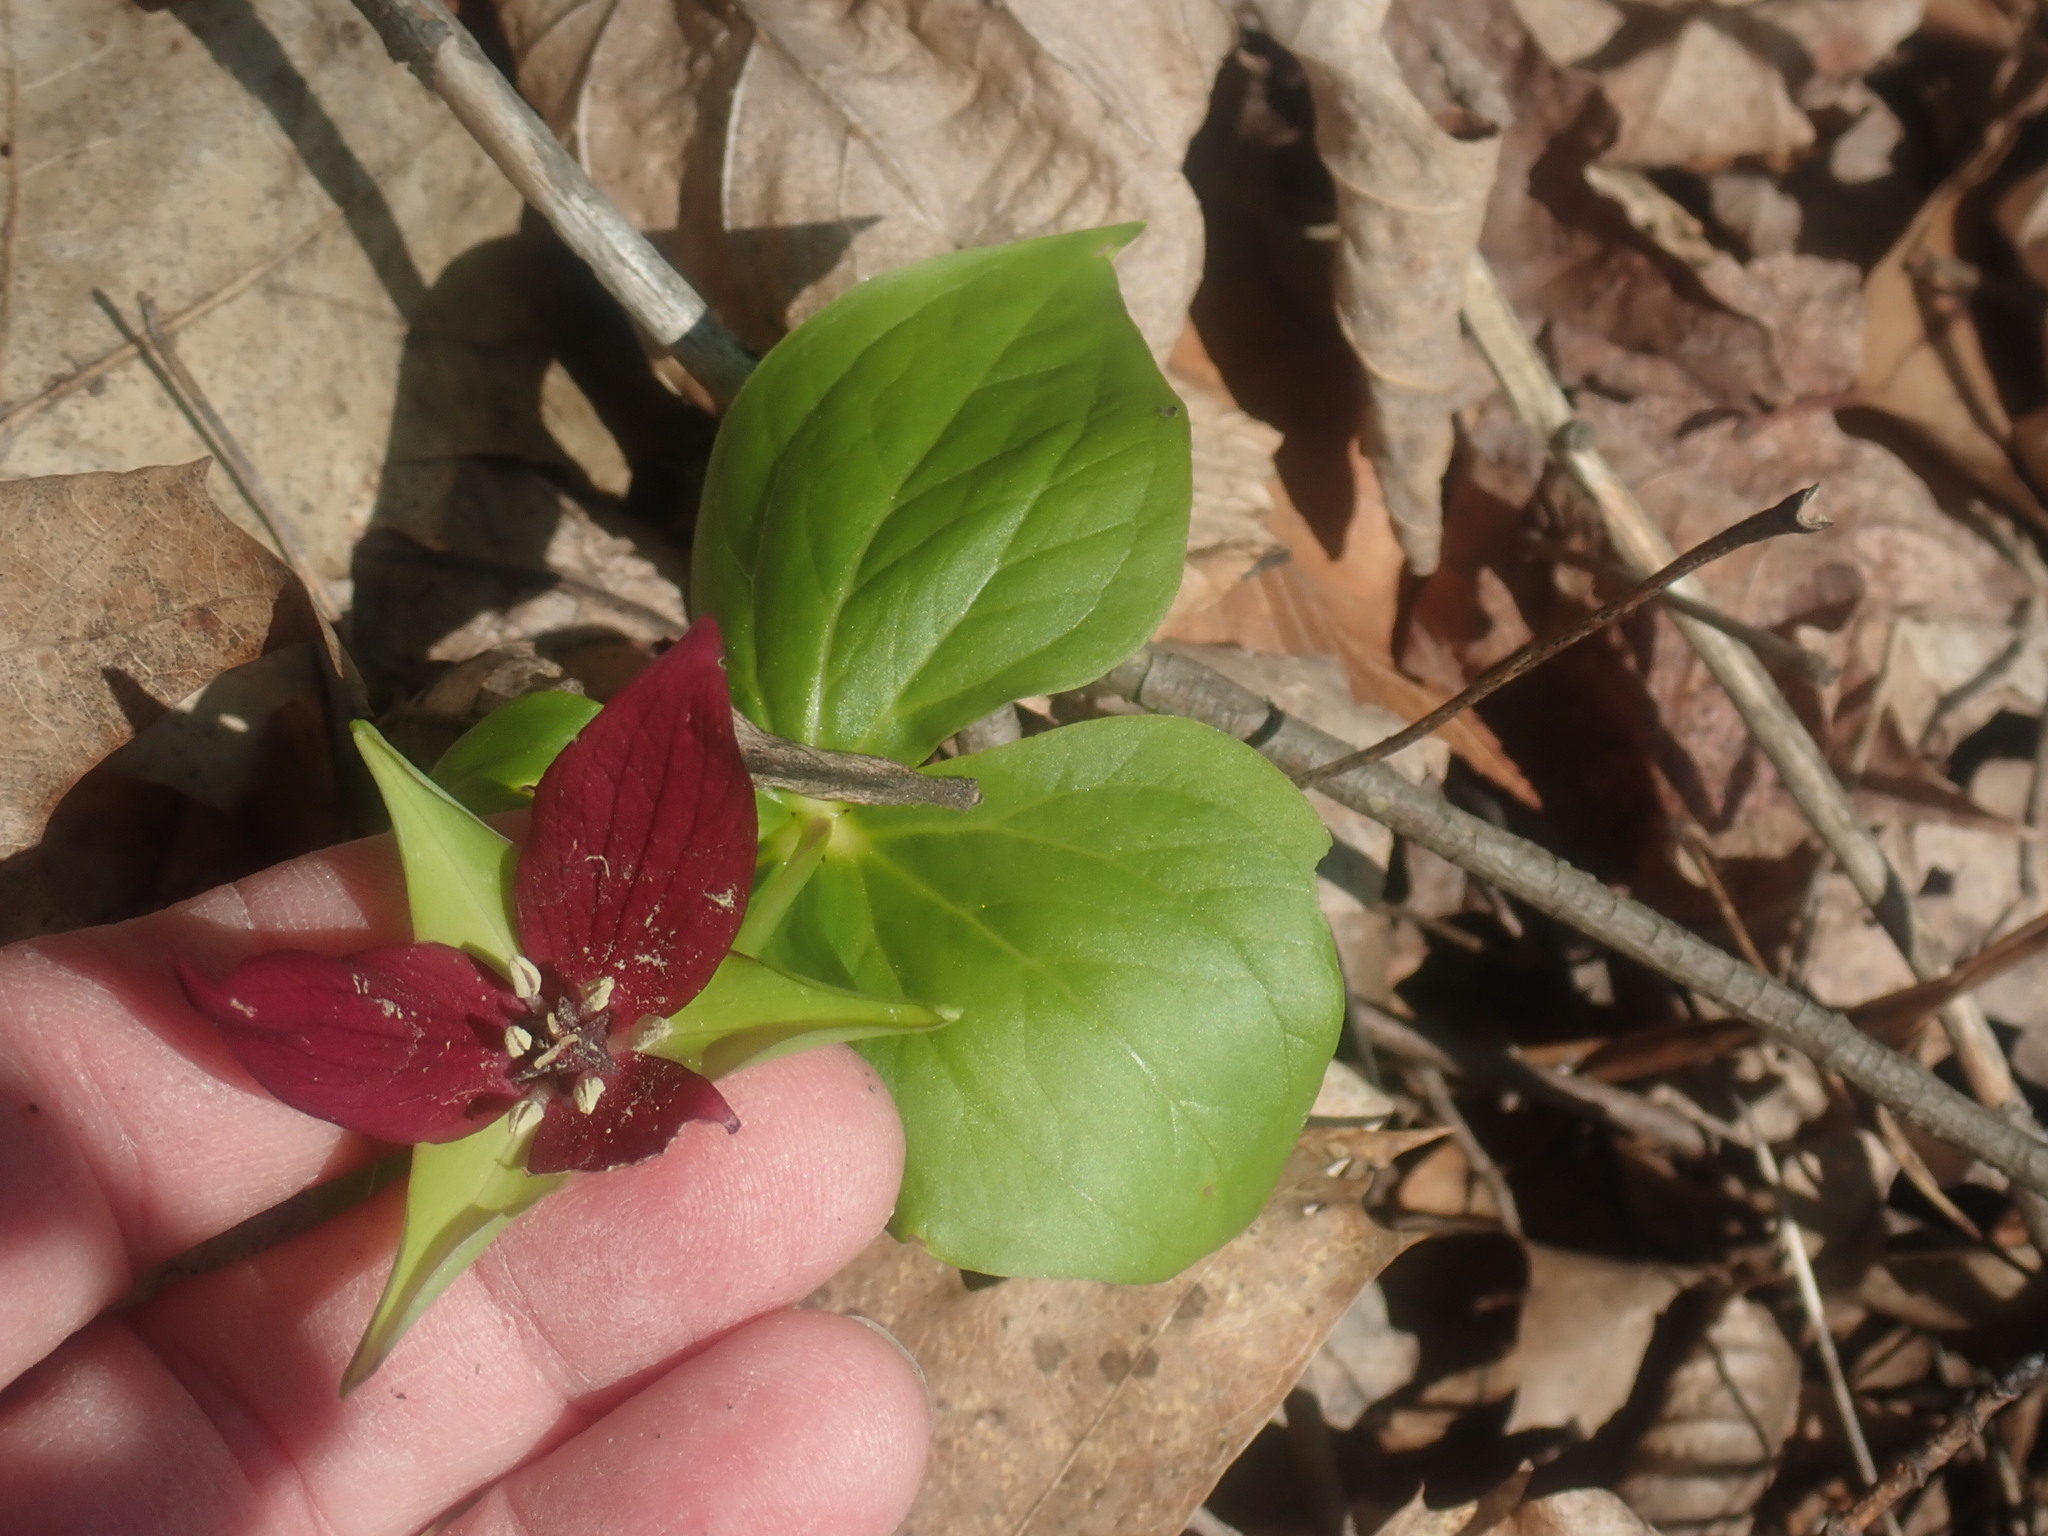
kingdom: Plantae
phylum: Tracheophyta
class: Liliopsida
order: Liliales
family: Melanthiaceae
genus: Trillium
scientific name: Trillium erectum
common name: Purple trillium
